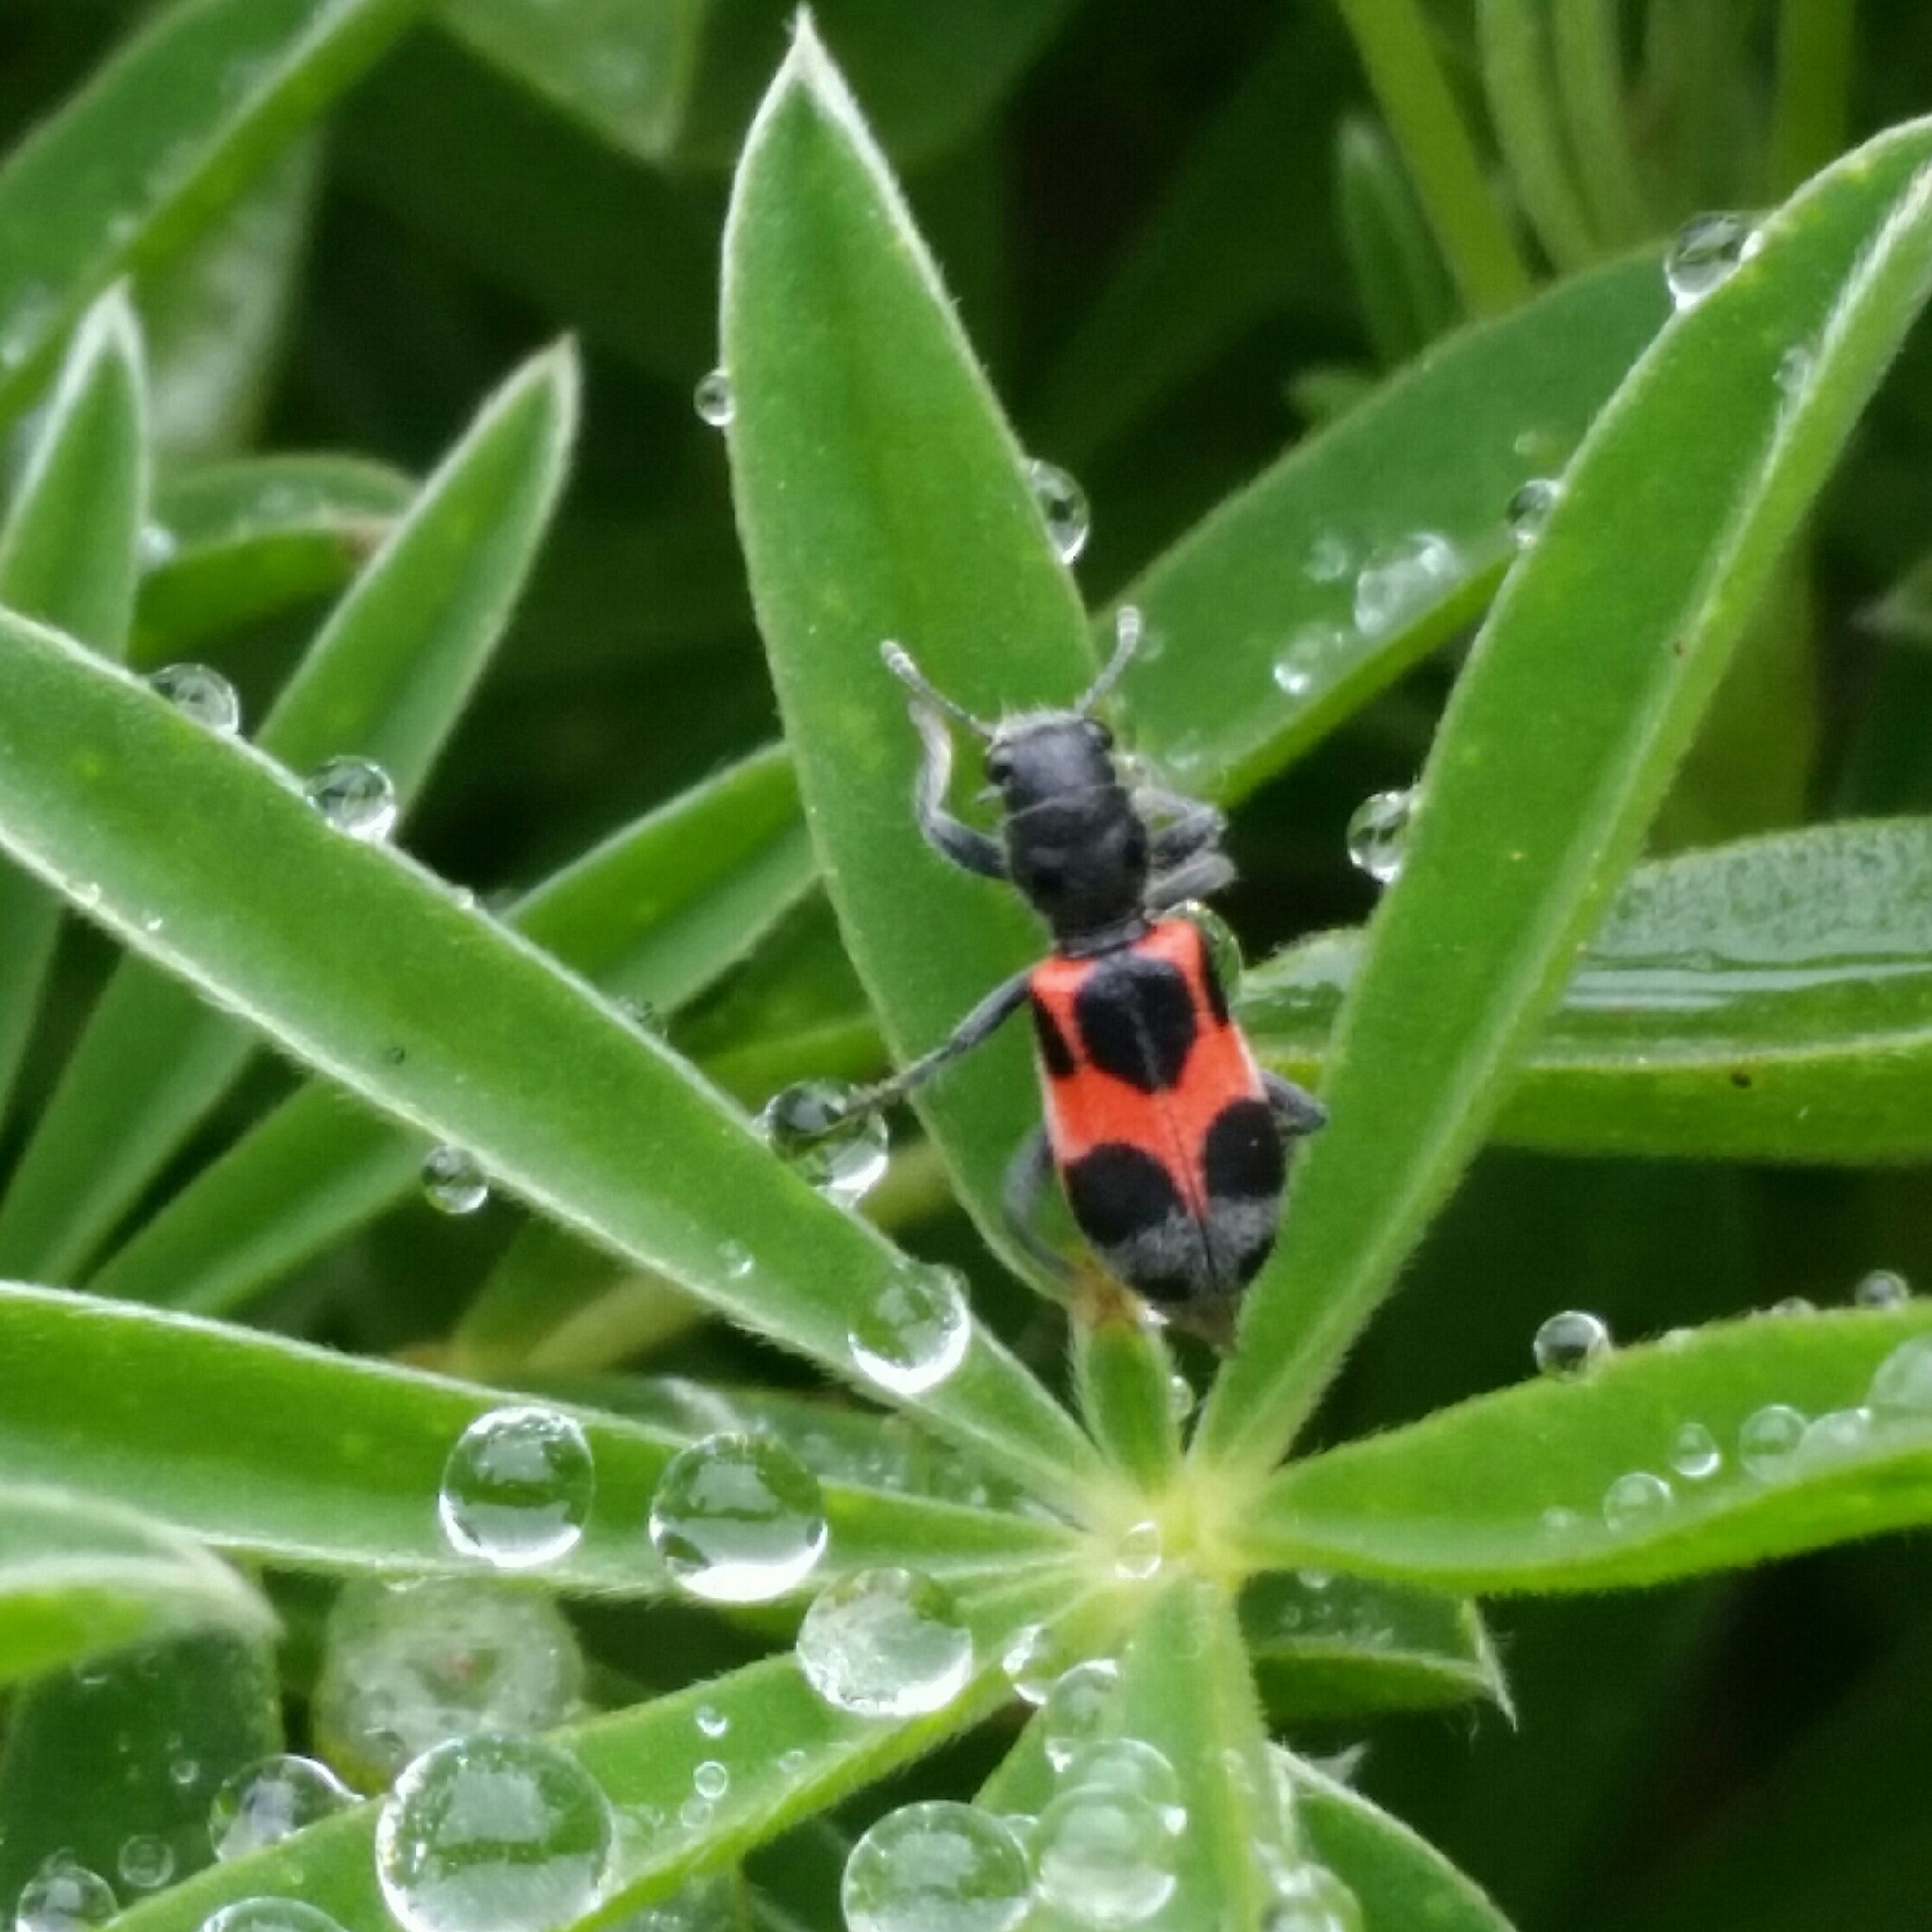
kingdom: Animalia
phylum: Arthropoda
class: Insecta
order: Coleoptera
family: Cleridae
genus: Enoclerus
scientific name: Enoclerus eximius
